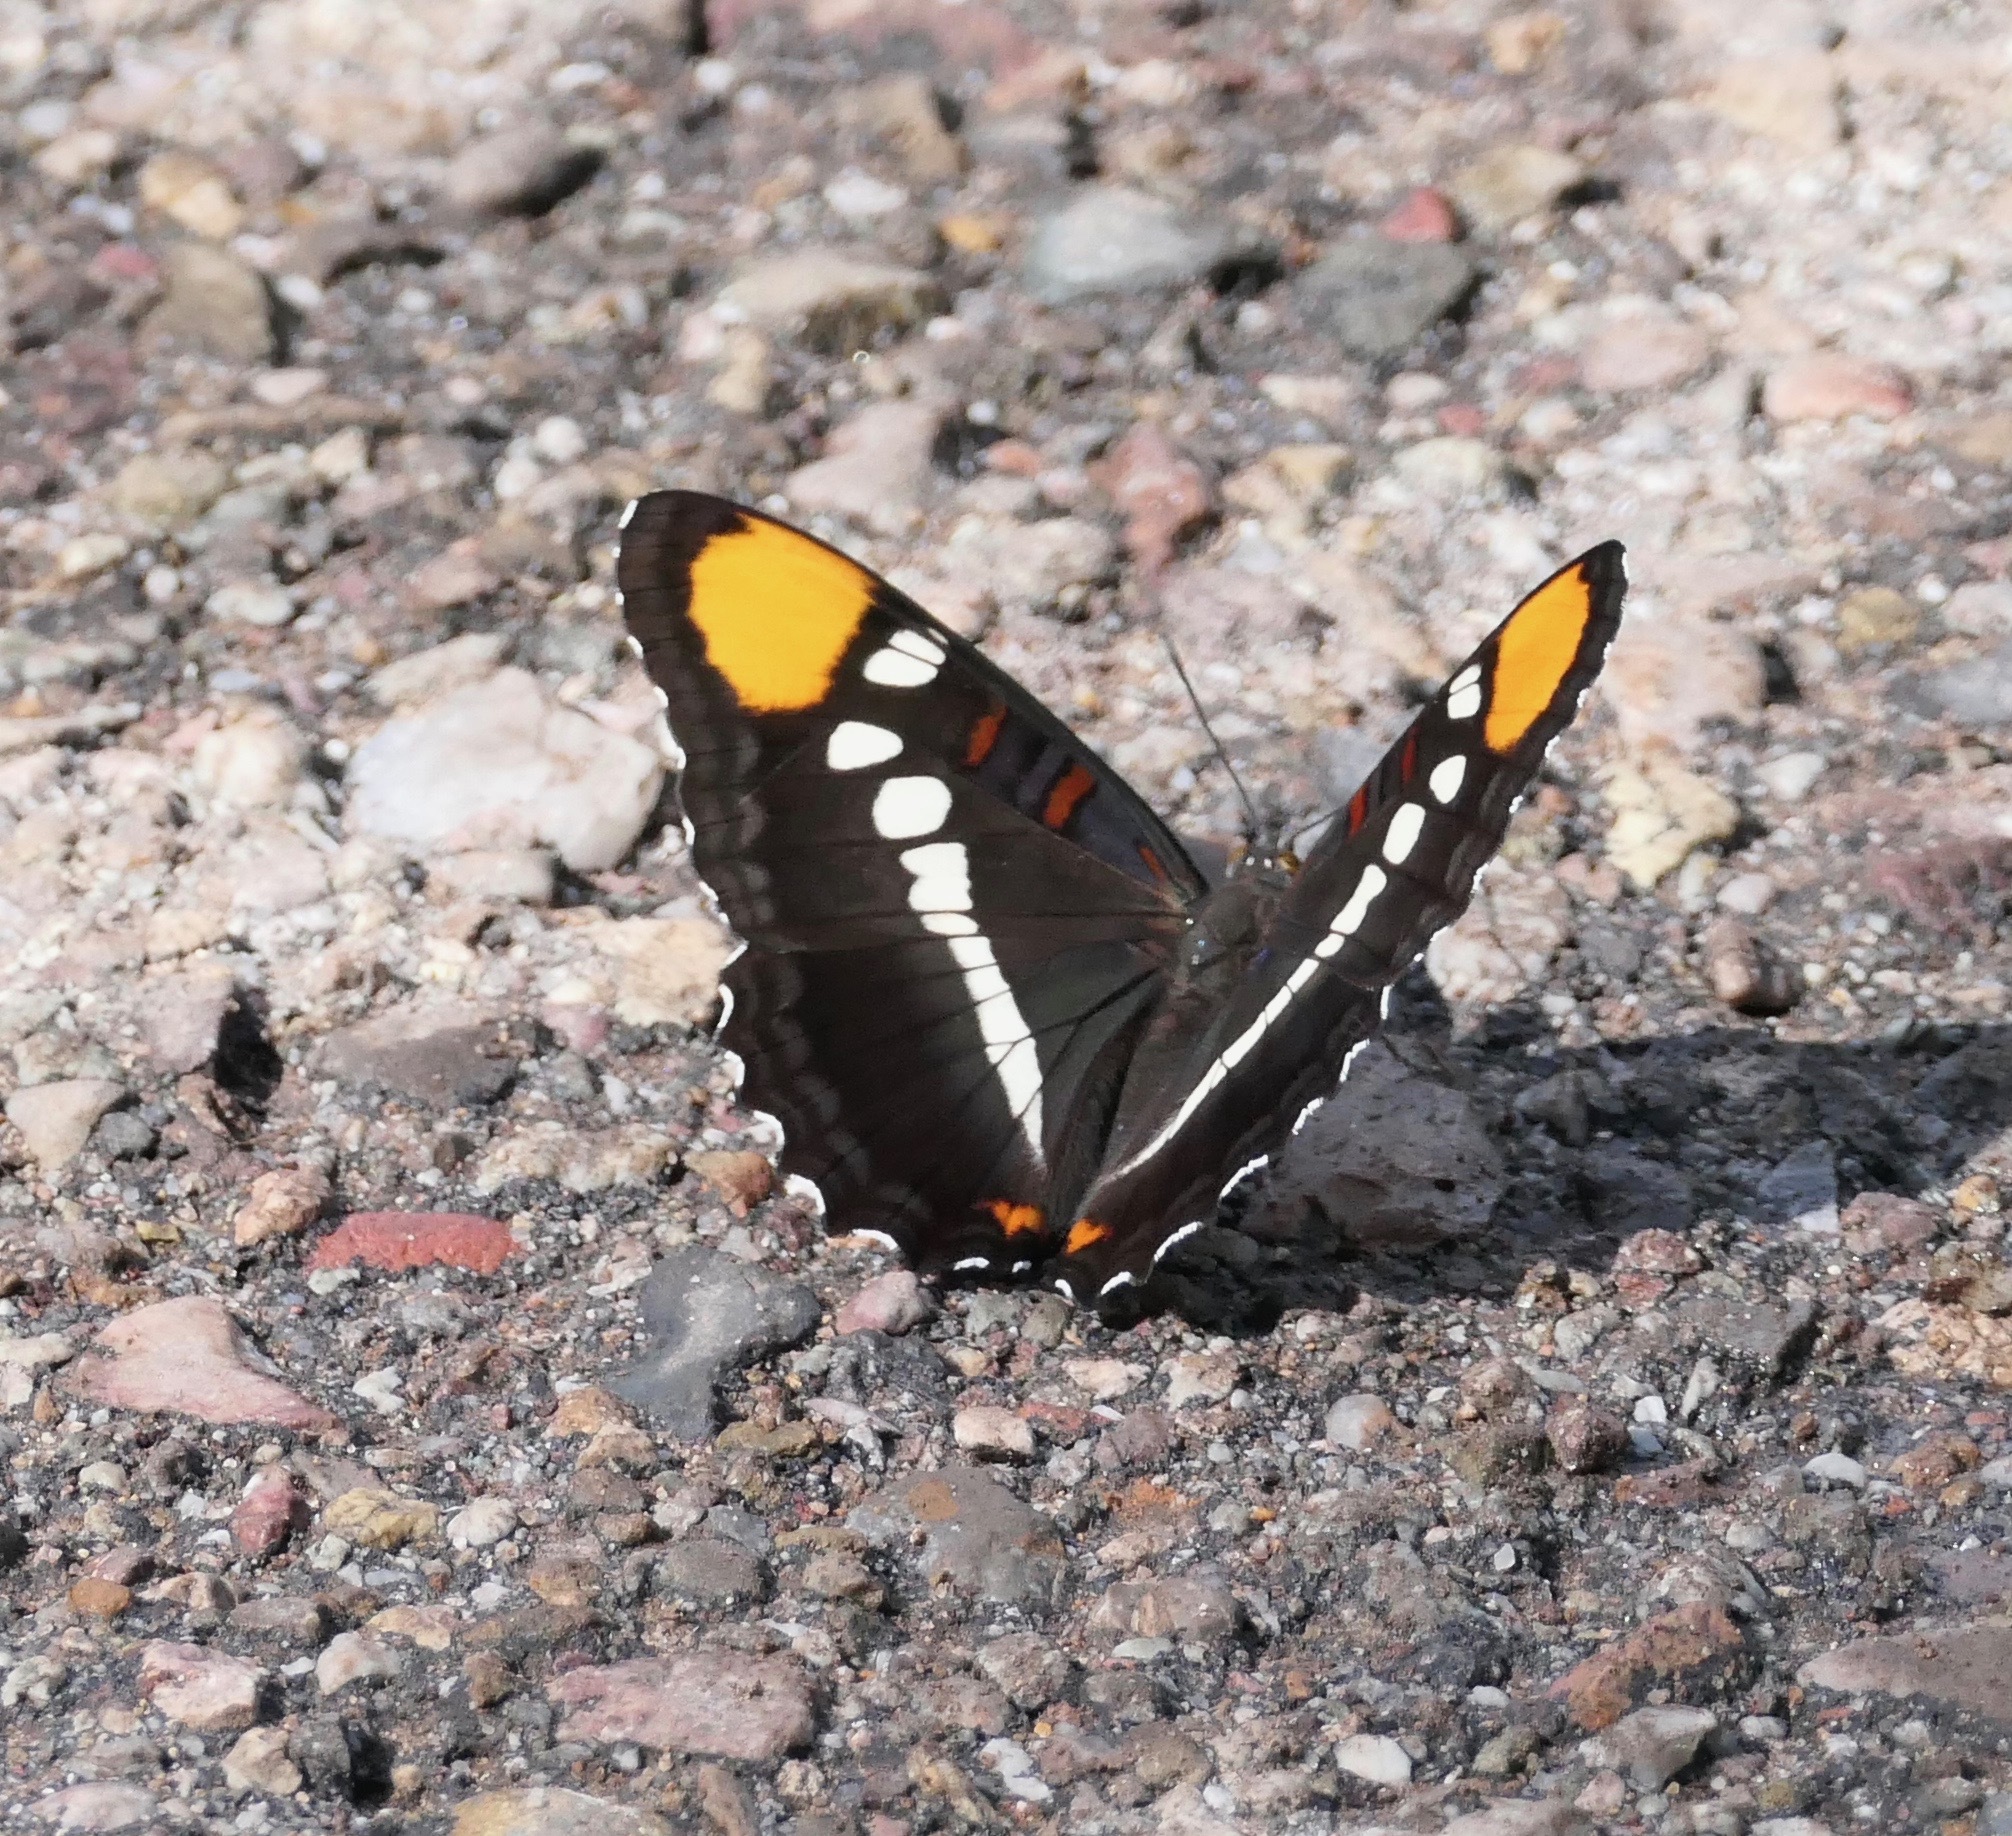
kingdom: Animalia
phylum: Arthropoda
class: Insecta
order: Lepidoptera
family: Nymphalidae
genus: Limenitis
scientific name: Limenitis bredowii
